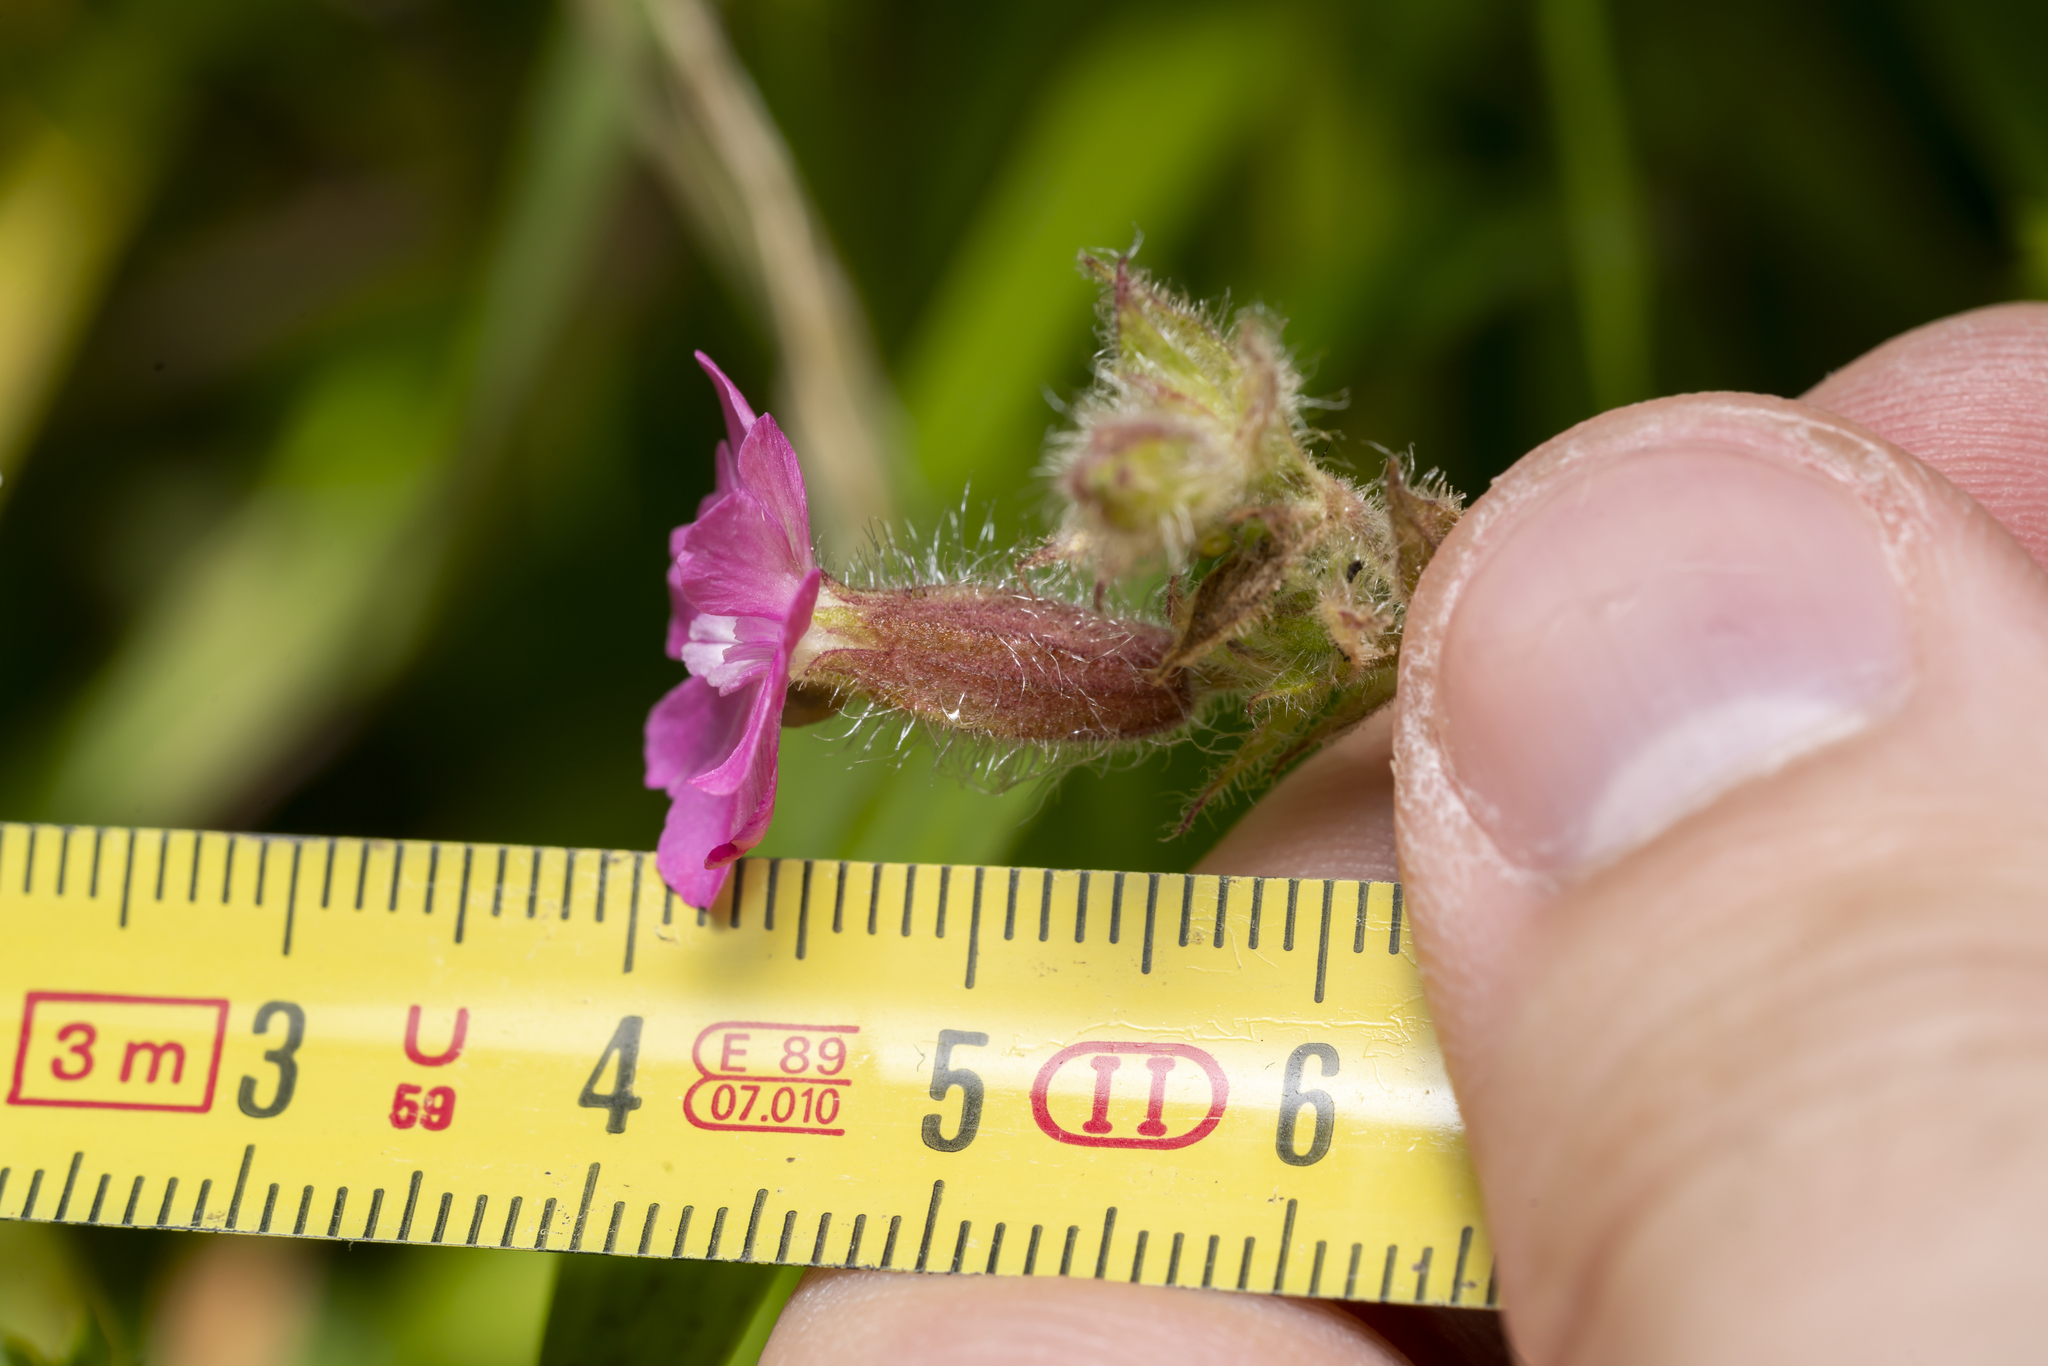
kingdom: Plantae
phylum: Tracheophyta
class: Magnoliopsida
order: Caryophyllales
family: Caryophyllaceae
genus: Silene
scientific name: Silene dioica
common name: Red campion
